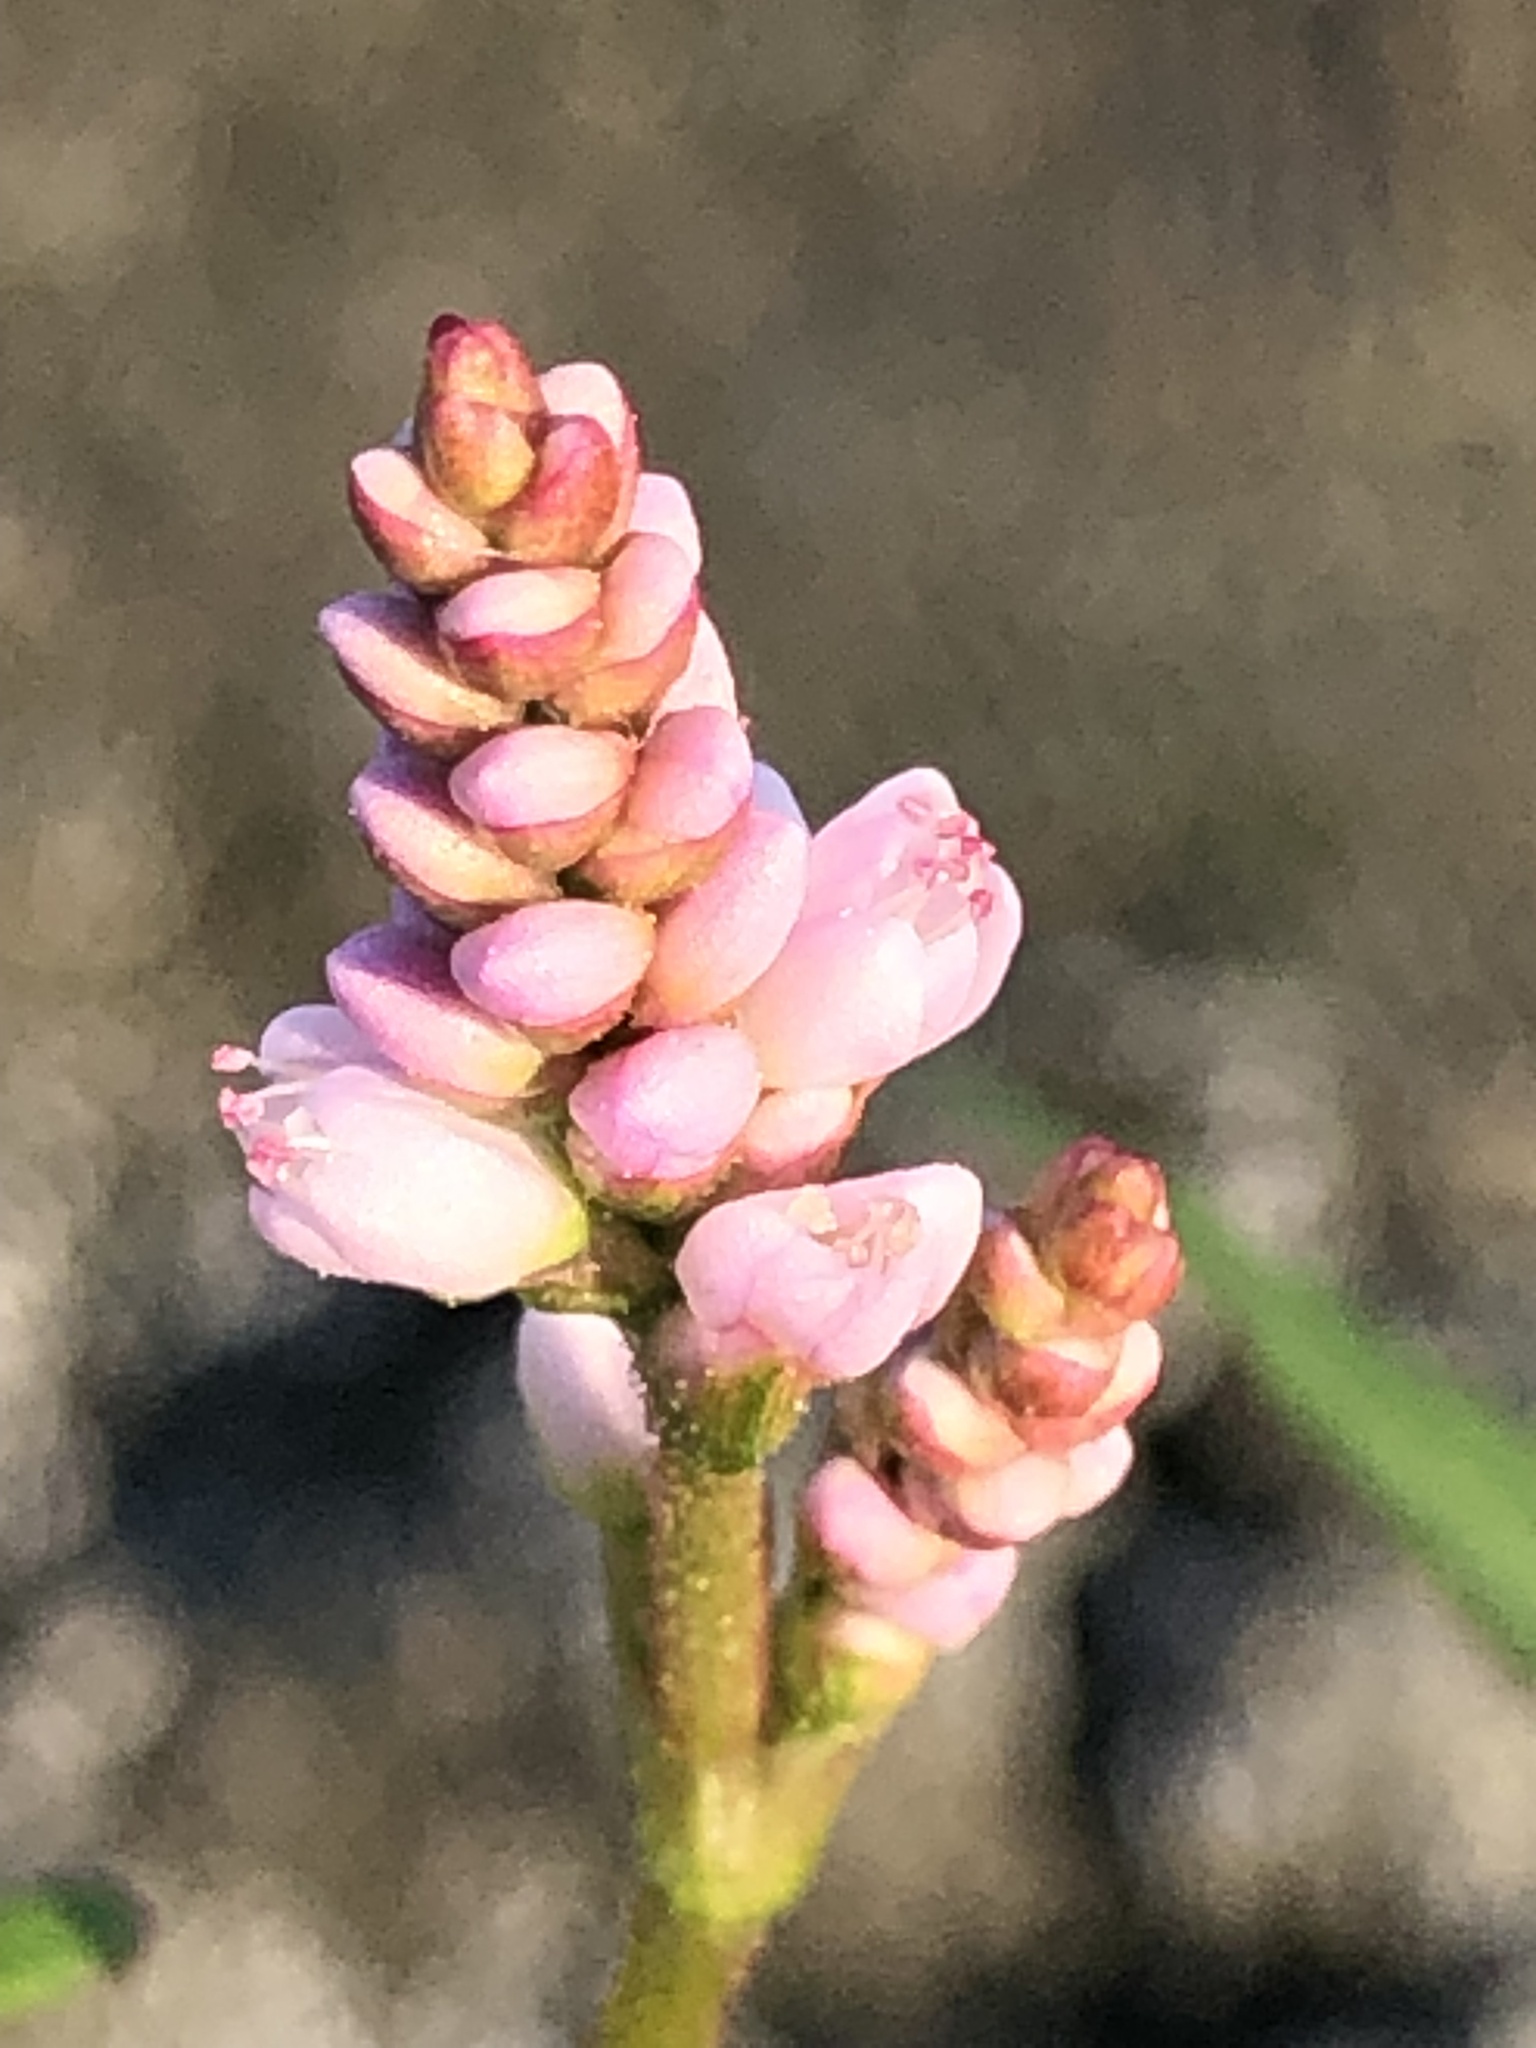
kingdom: Plantae
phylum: Tracheophyta
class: Magnoliopsida
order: Caryophyllales
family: Polygonaceae
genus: Persicaria
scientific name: Persicaria pensylvanica
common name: Pinkweed
